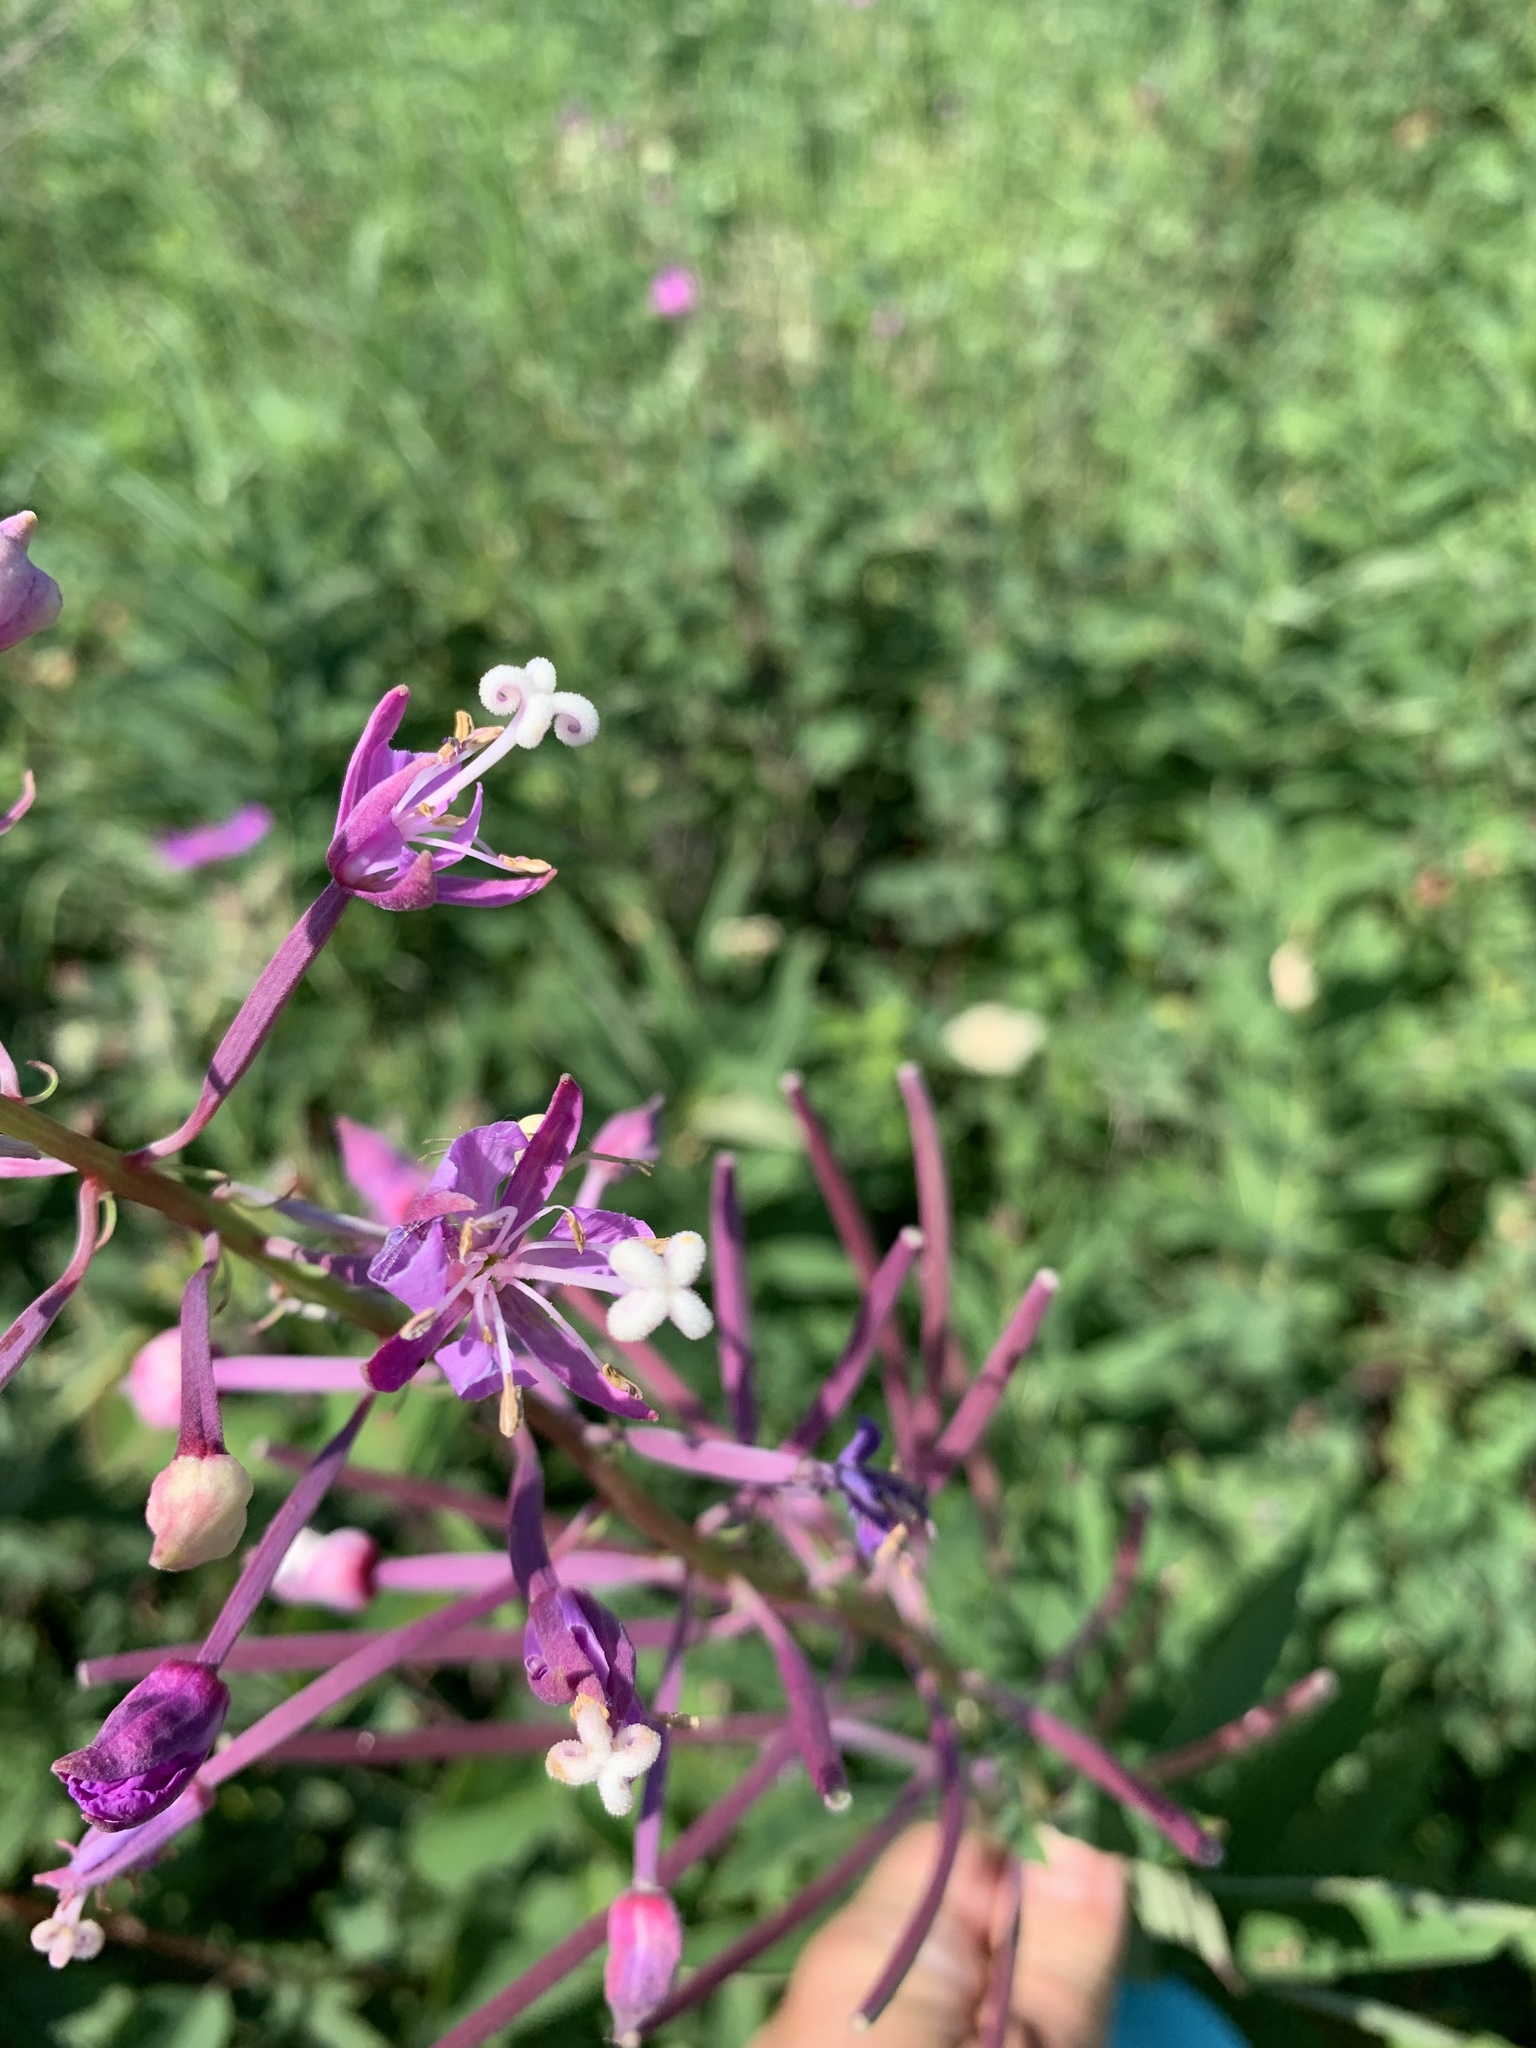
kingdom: Plantae
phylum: Tracheophyta
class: Magnoliopsida
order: Myrtales
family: Onagraceae
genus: Chamaenerion
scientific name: Chamaenerion angustifolium
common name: Fireweed
